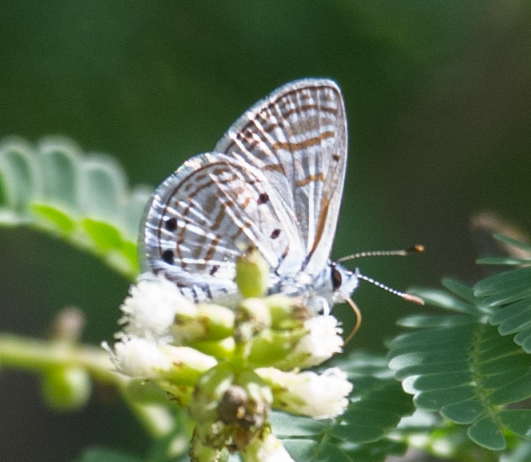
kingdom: Animalia
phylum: Arthropoda
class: Insecta
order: Lepidoptera
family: Lycaenidae
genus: Azanus
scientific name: Azanus ubaldus
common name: Desert babul blue
